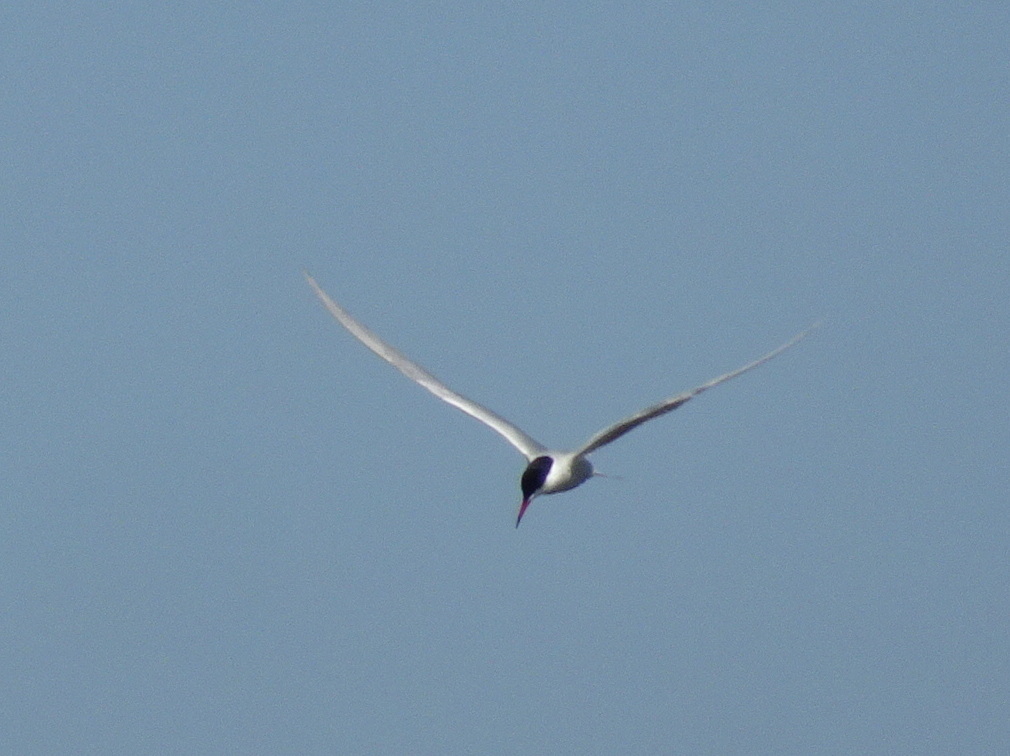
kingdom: Animalia
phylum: Chordata
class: Aves
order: Charadriiformes
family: Laridae
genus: Sterna
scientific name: Sterna hirundo
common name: Common tern
